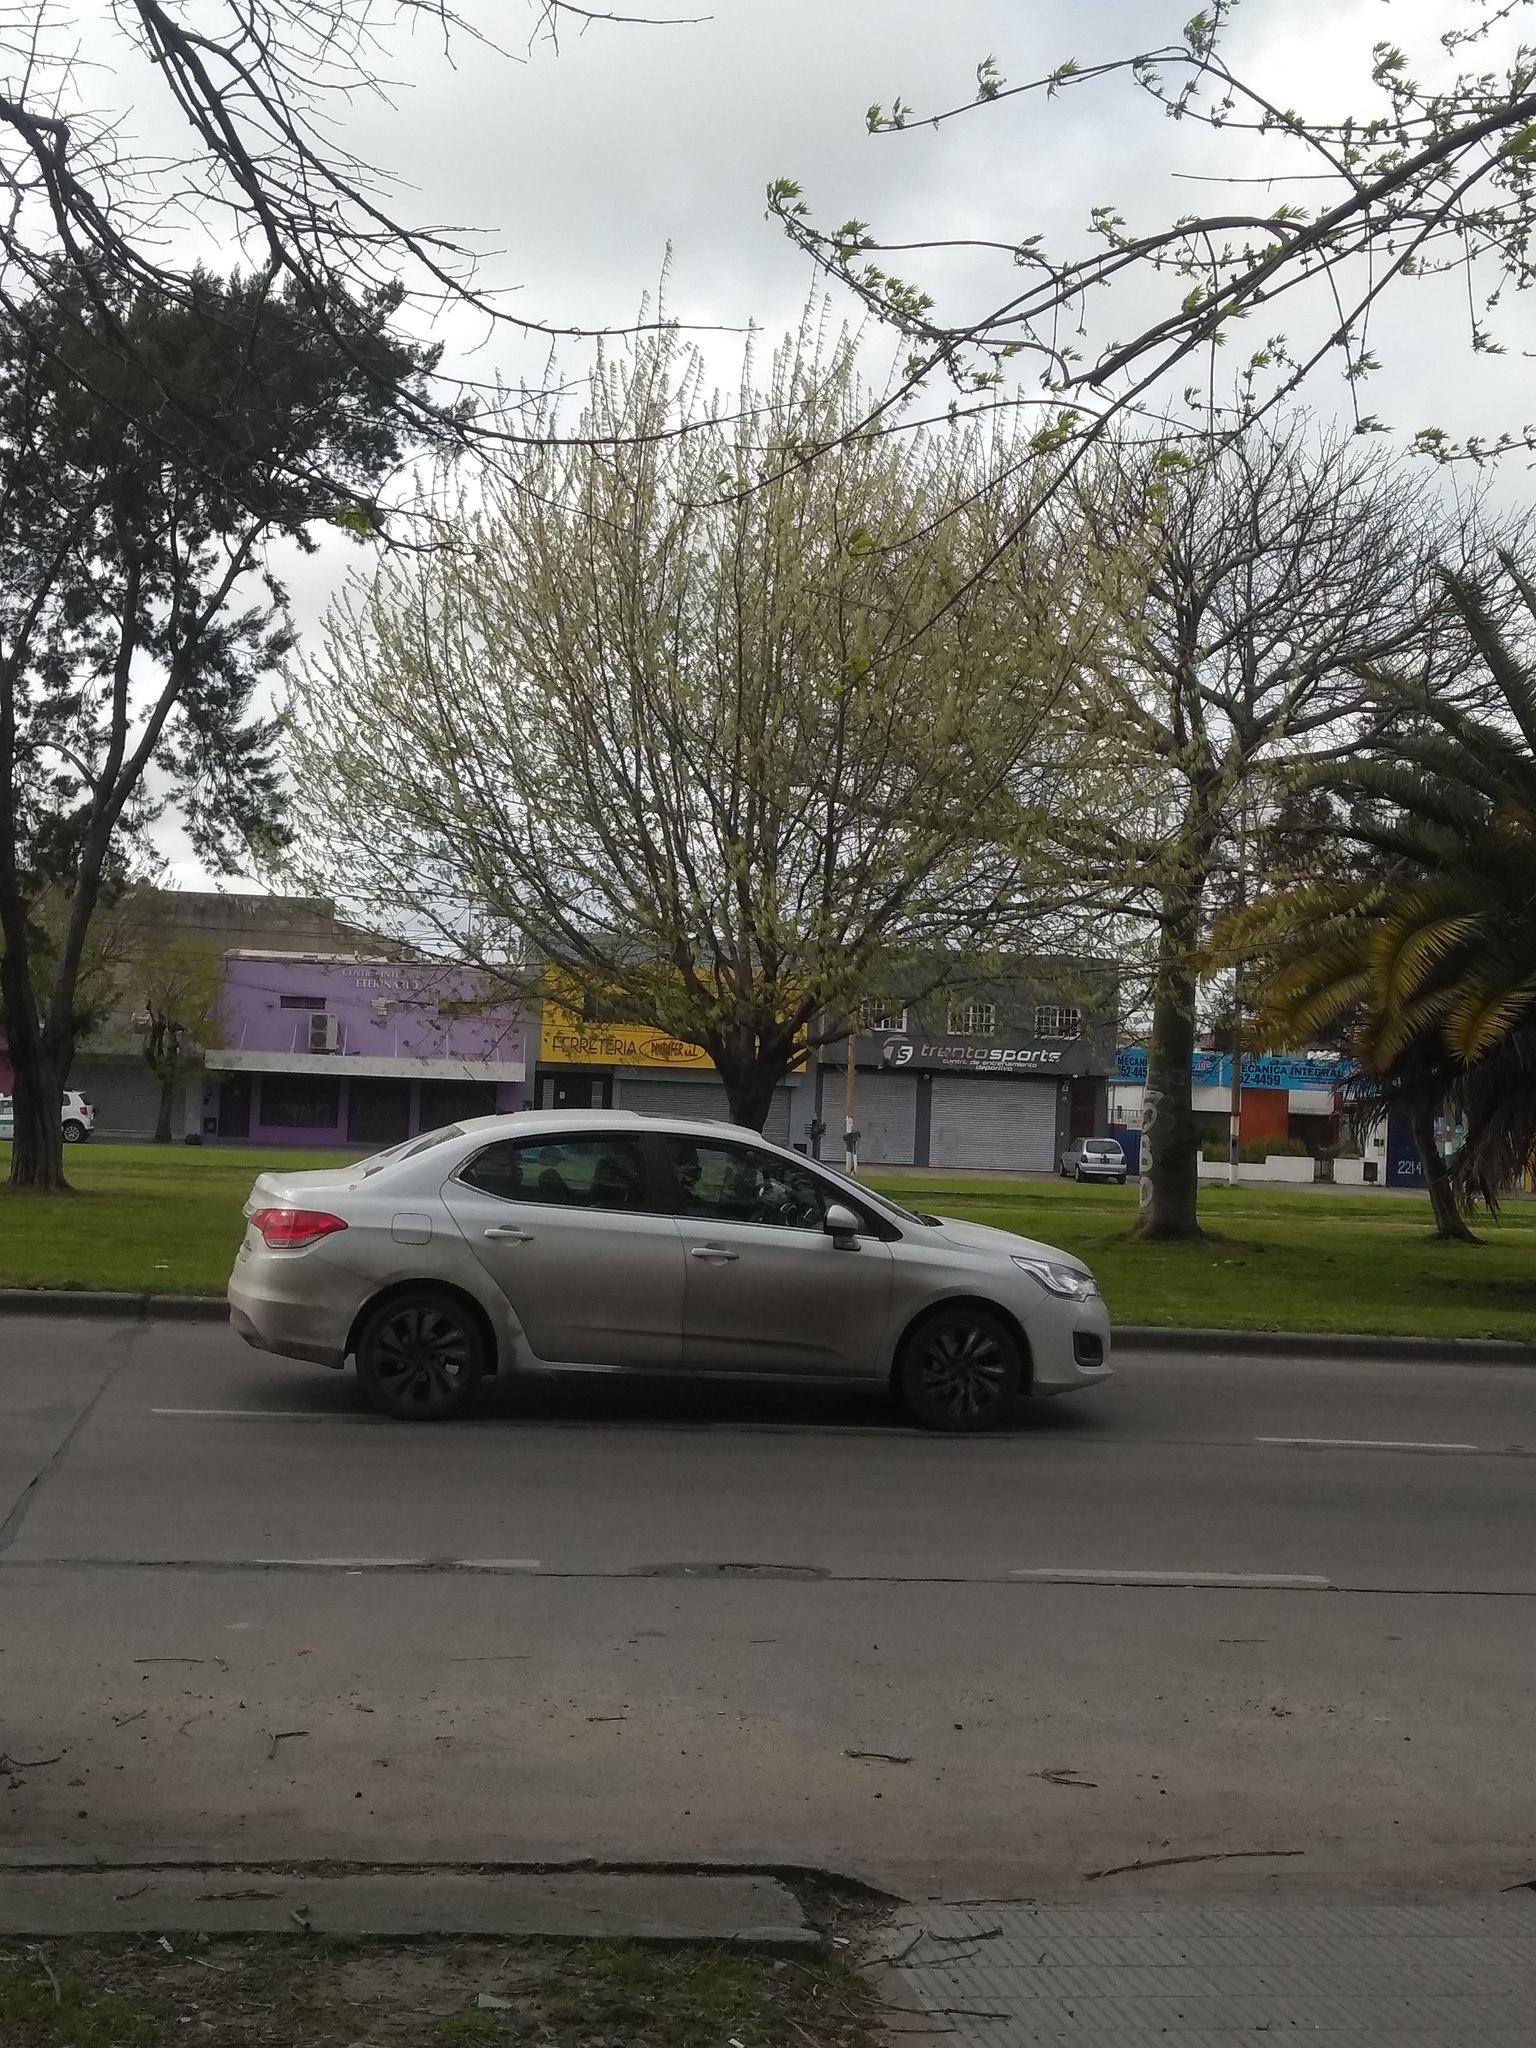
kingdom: Plantae
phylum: Tracheophyta
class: Magnoliopsida
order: Sapindales
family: Sapindaceae
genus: Acer
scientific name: Acer negundo
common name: Ashleaf maple
